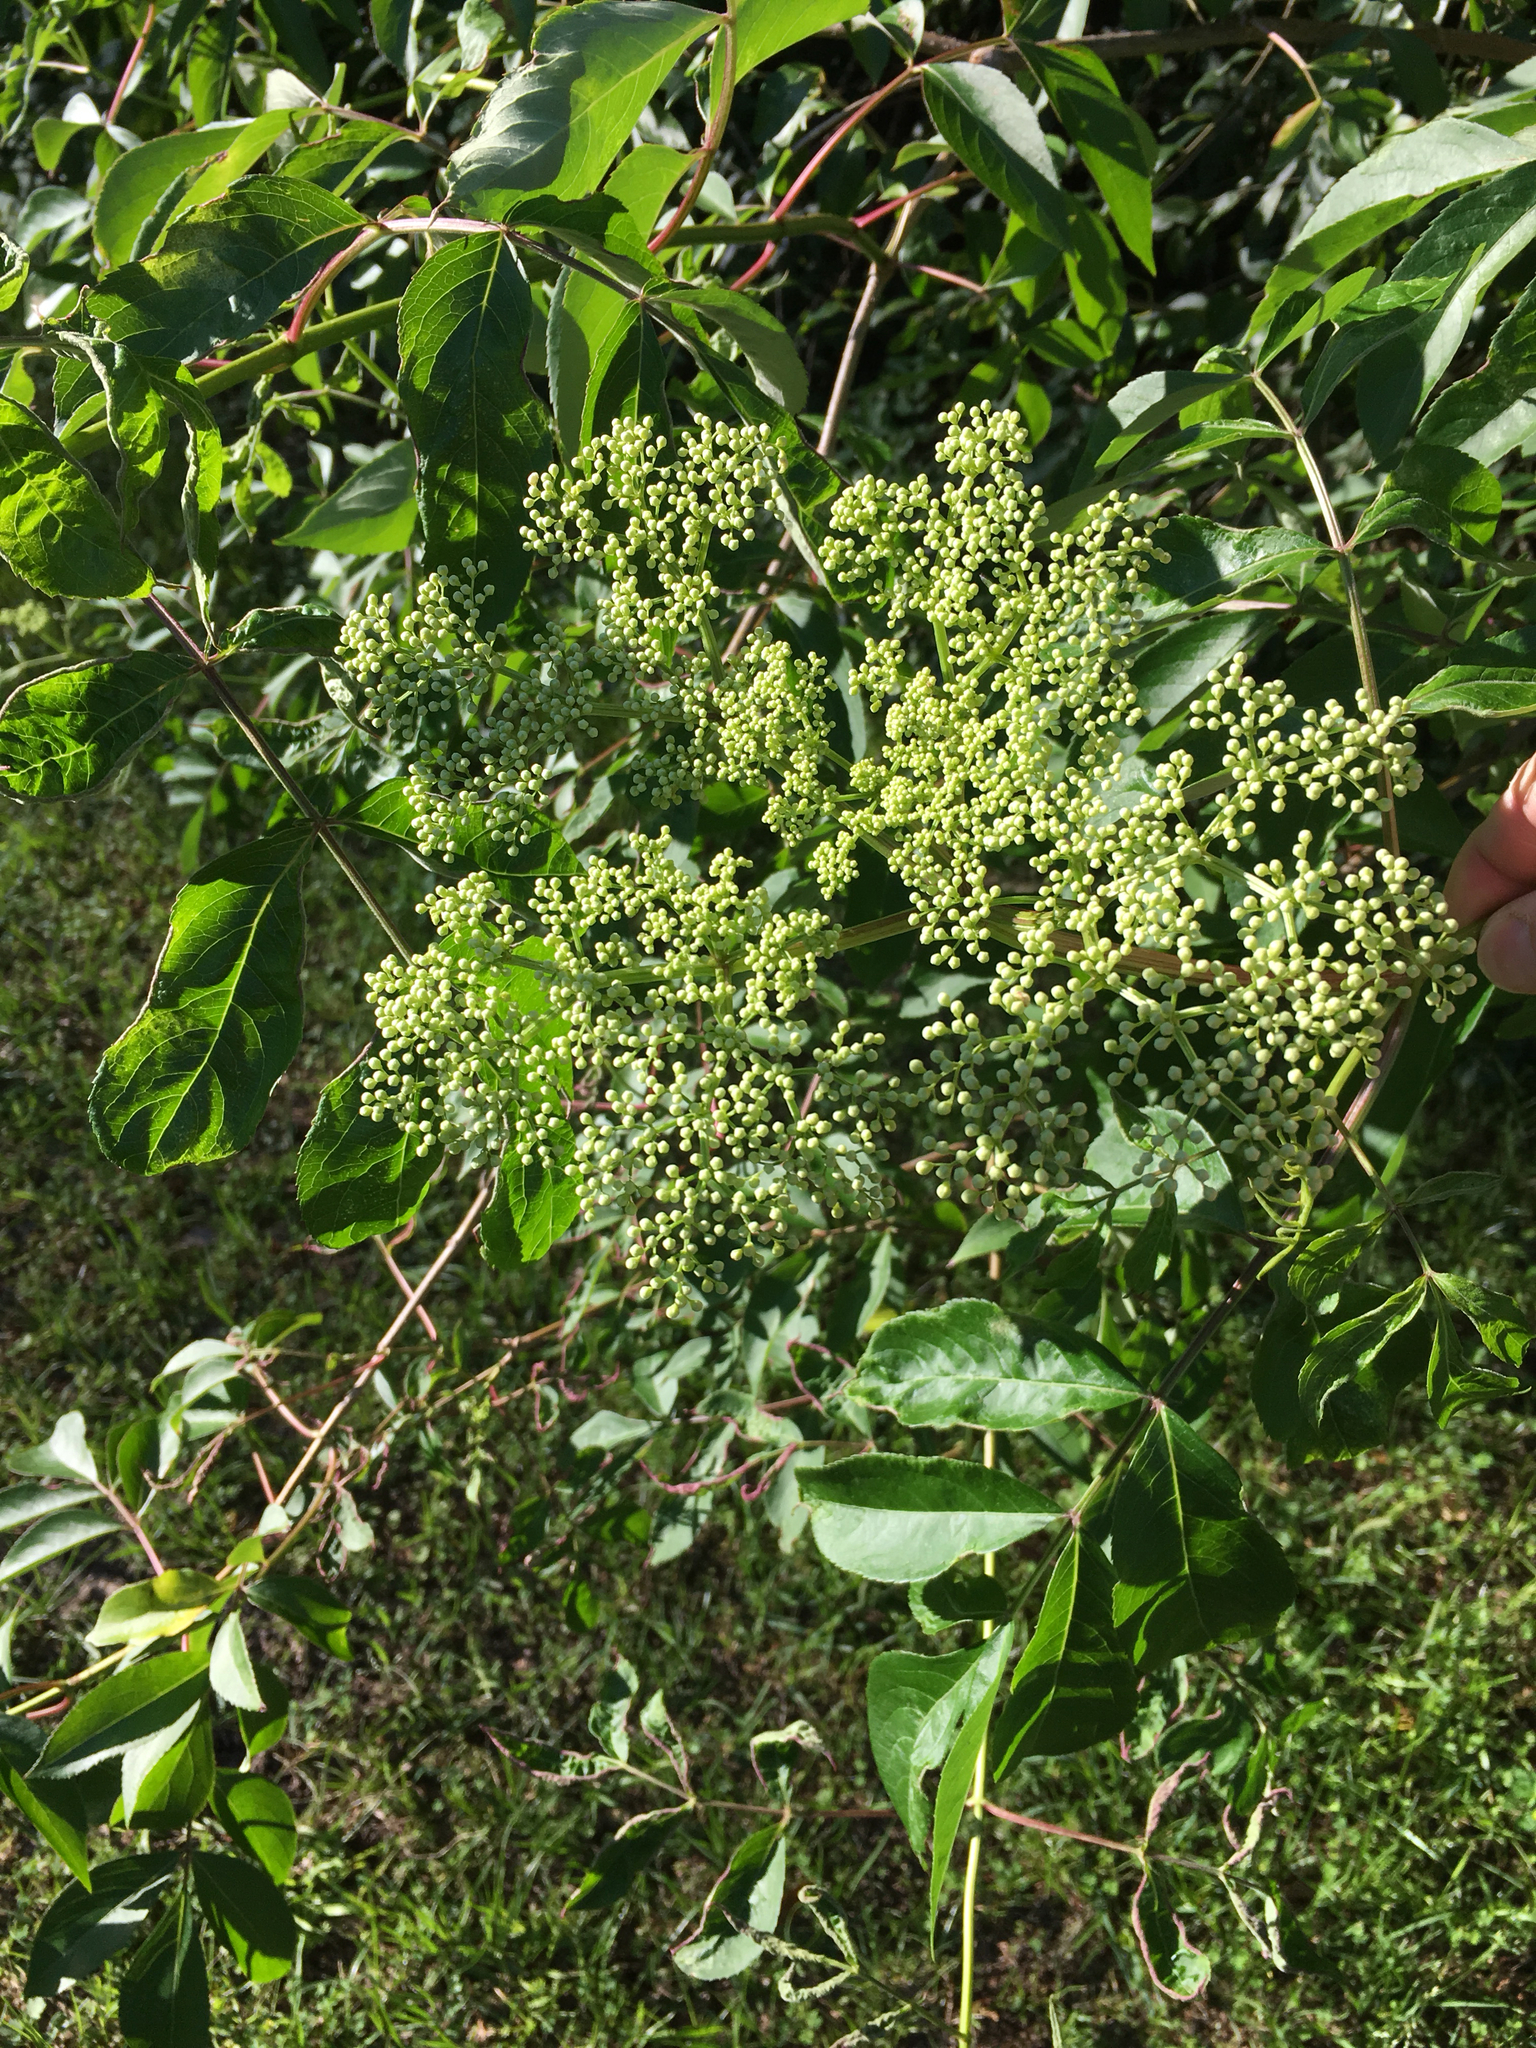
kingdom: Plantae
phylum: Tracheophyta
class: Magnoliopsida
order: Dipsacales
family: Viburnaceae
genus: Sambucus
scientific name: Sambucus canadensis
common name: American elder
